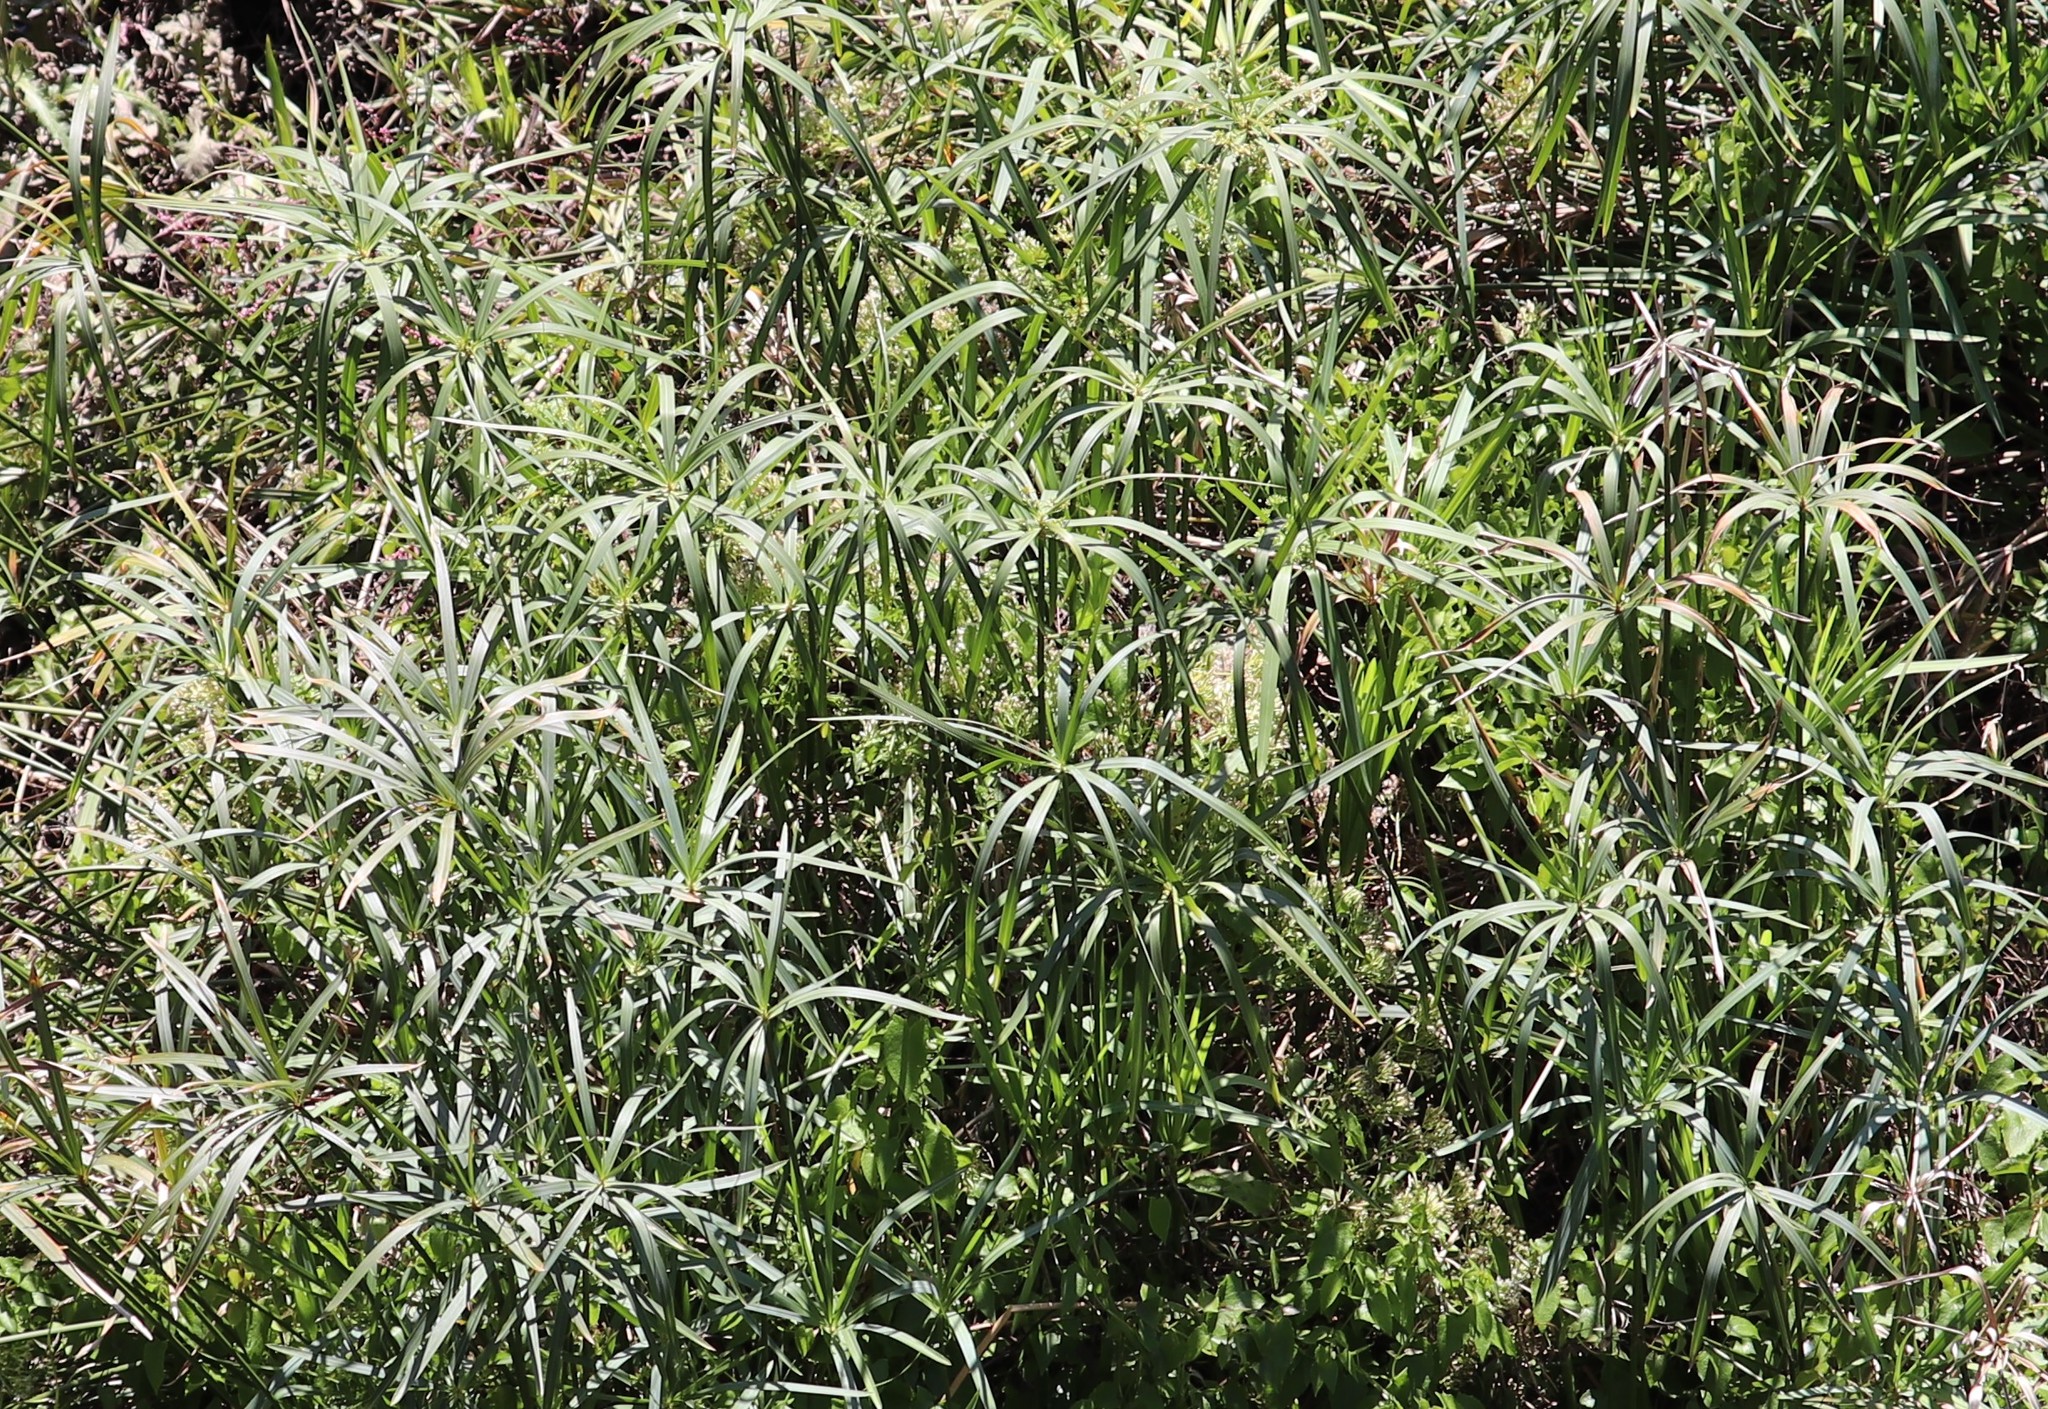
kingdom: Plantae
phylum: Tracheophyta
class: Liliopsida
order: Poales
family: Cyperaceae
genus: Cyperus
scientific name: Cyperus textilis
